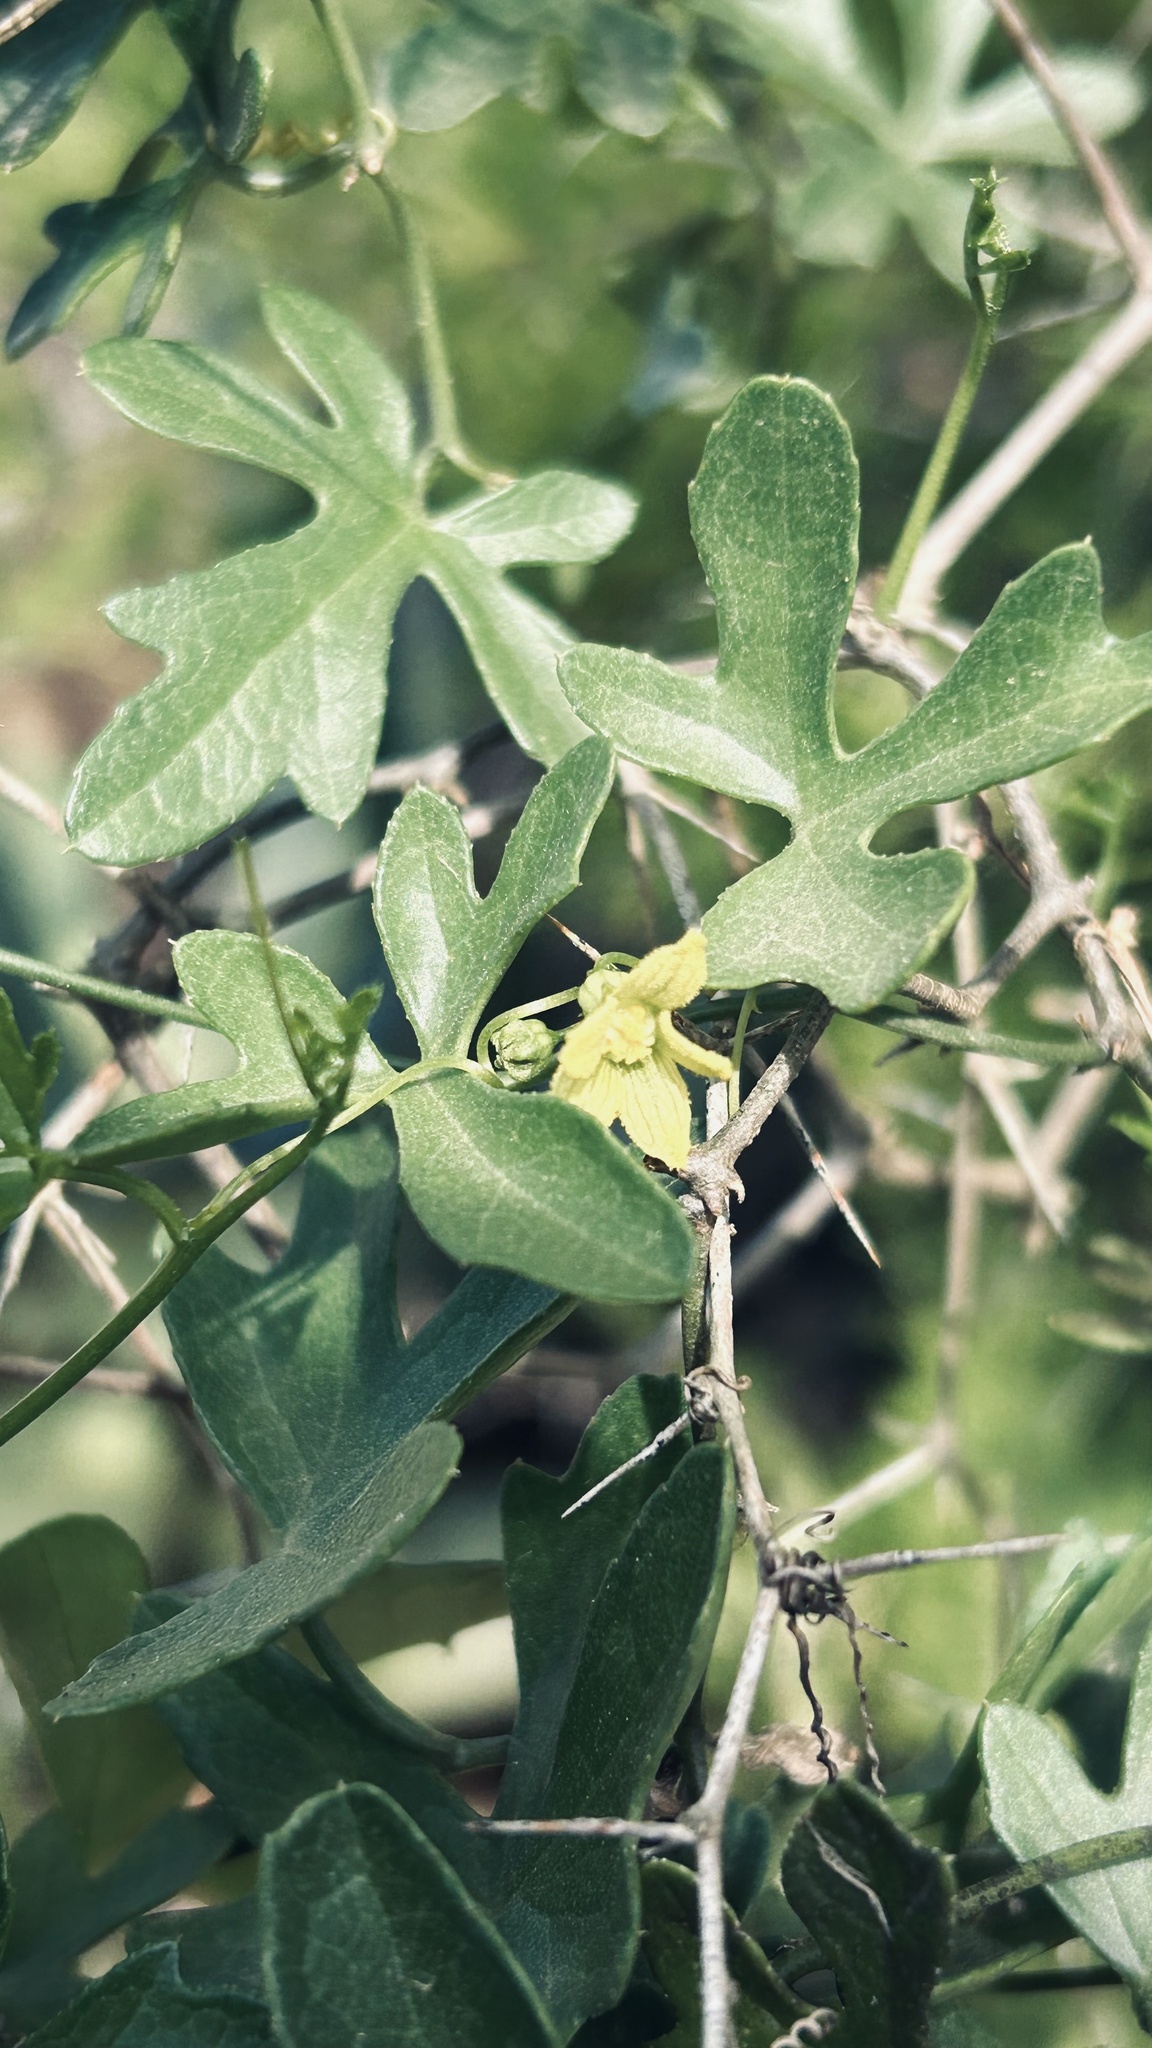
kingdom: Plantae
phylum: Tracheophyta
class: Magnoliopsida
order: Cucurbitales
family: Cucurbitaceae
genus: Kedrostis
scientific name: Kedrostis nana
